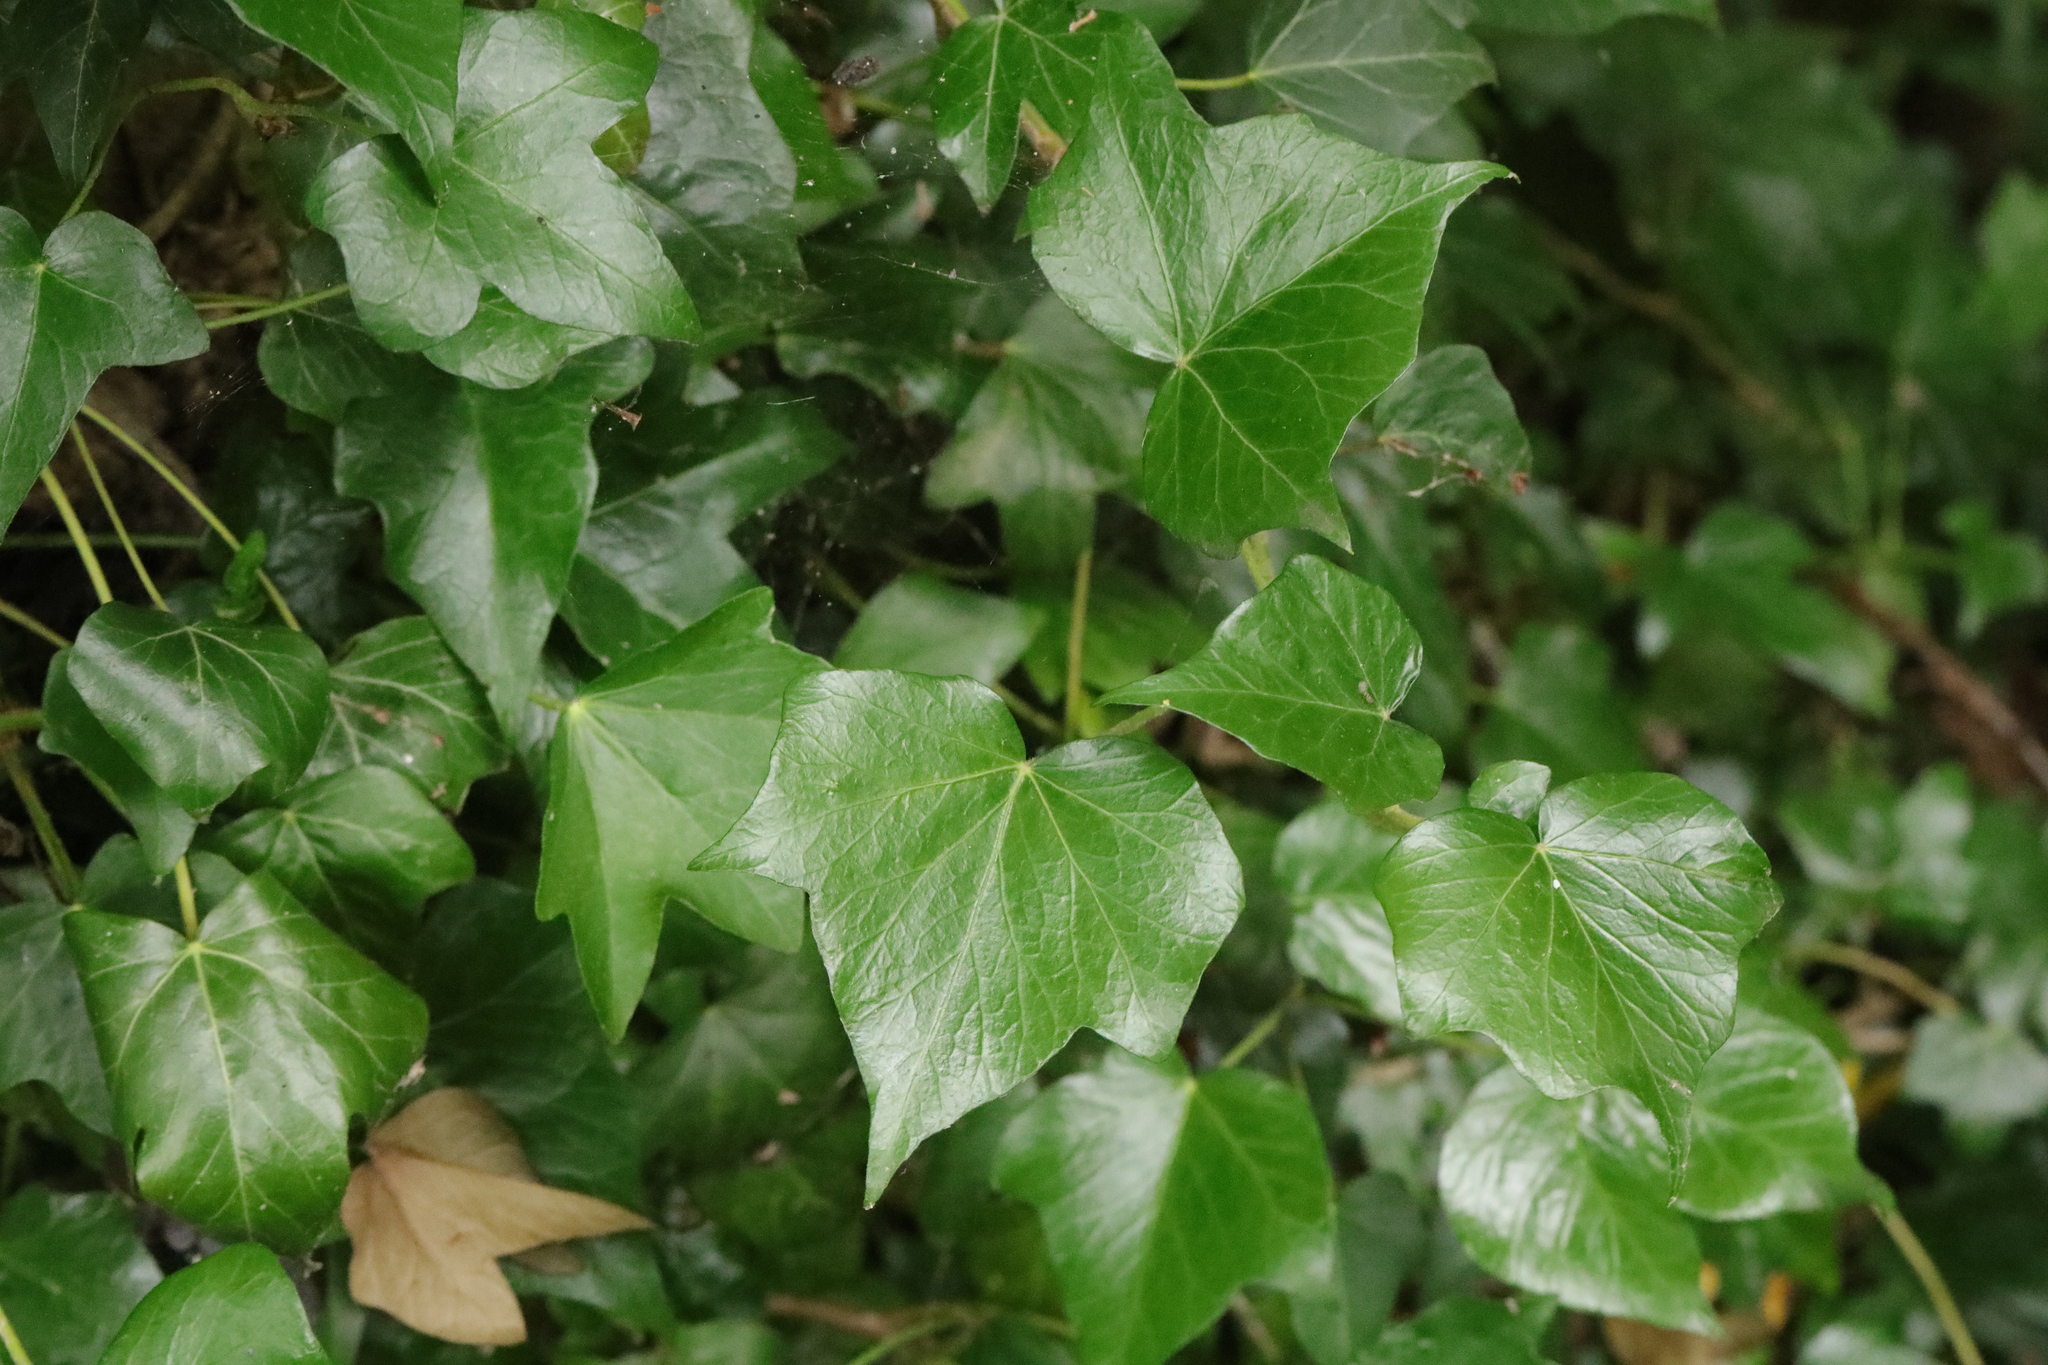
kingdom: Plantae
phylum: Tracheophyta
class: Magnoliopsida
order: Apiales
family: Araliaceae
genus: Hedera
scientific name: Hedera helix
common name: Ivy
